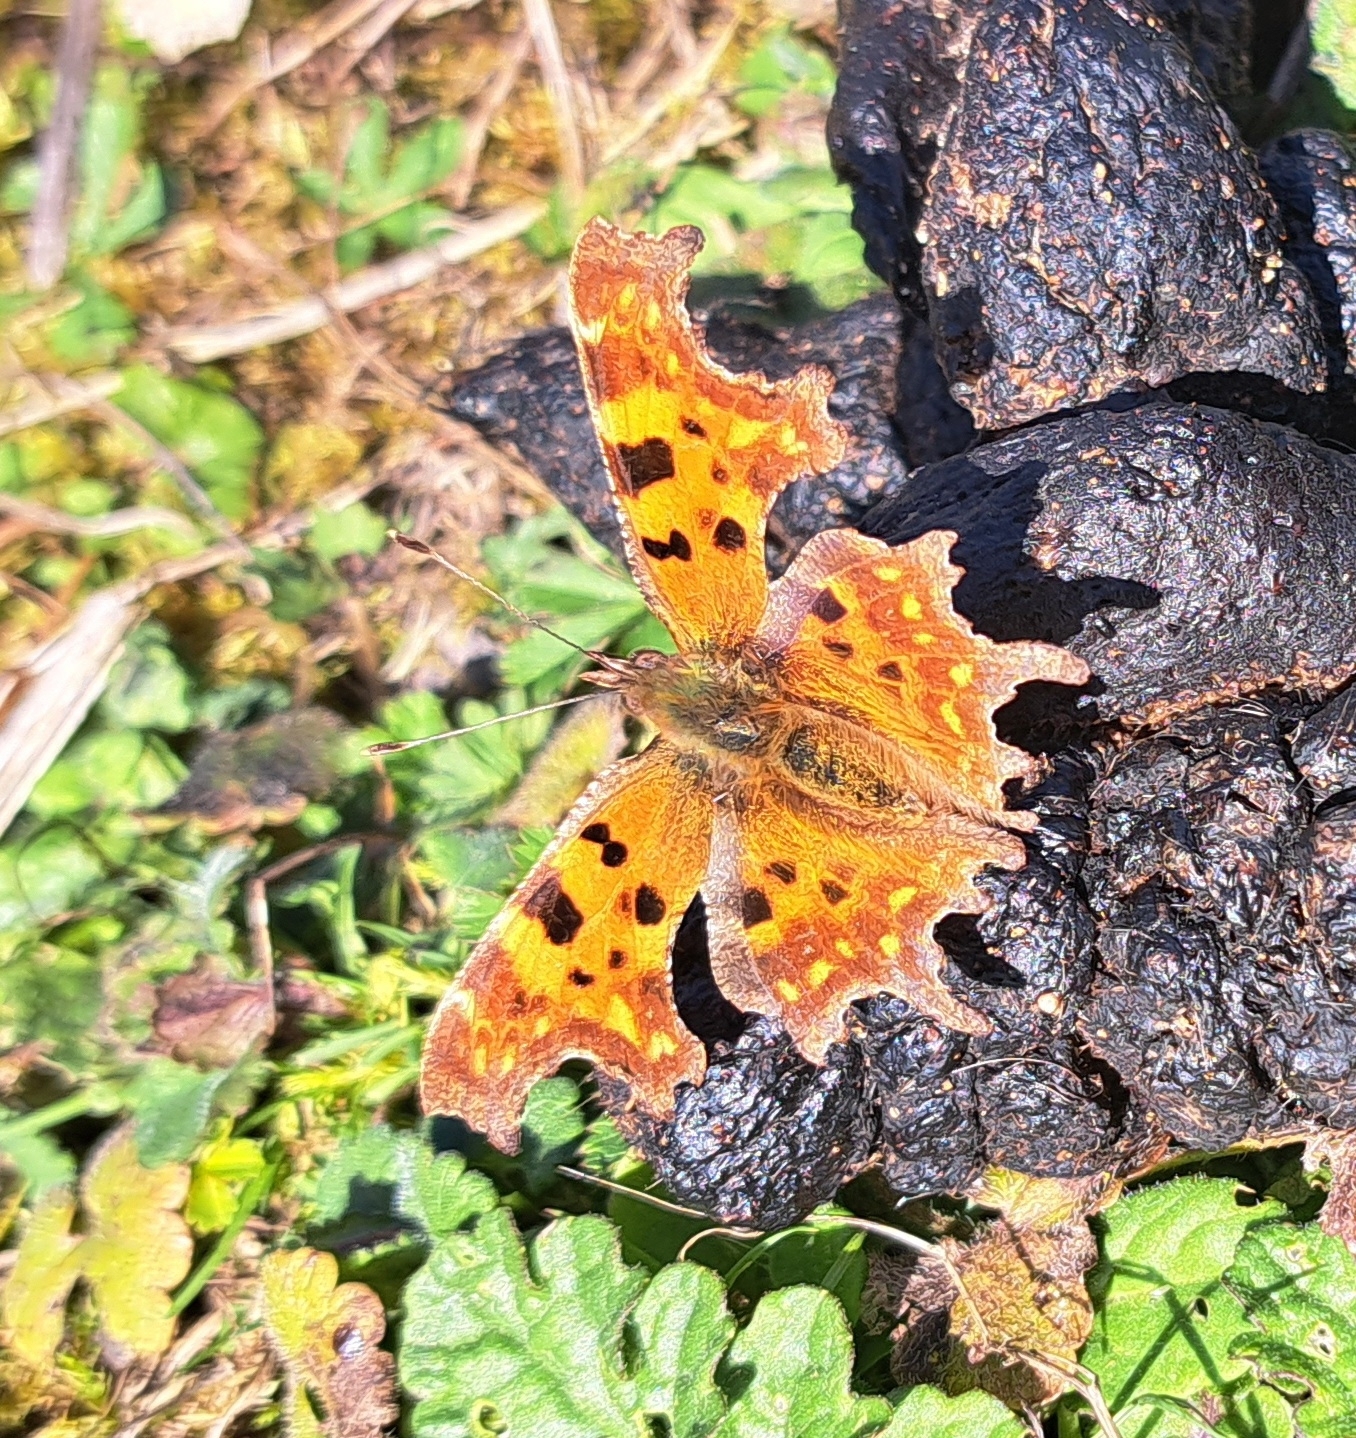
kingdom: Animalia
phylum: Arthropoda
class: Insecta
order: Lepidoptera
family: Nymphalidae
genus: Polygonia
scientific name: Polygonia c-album
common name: Comma
